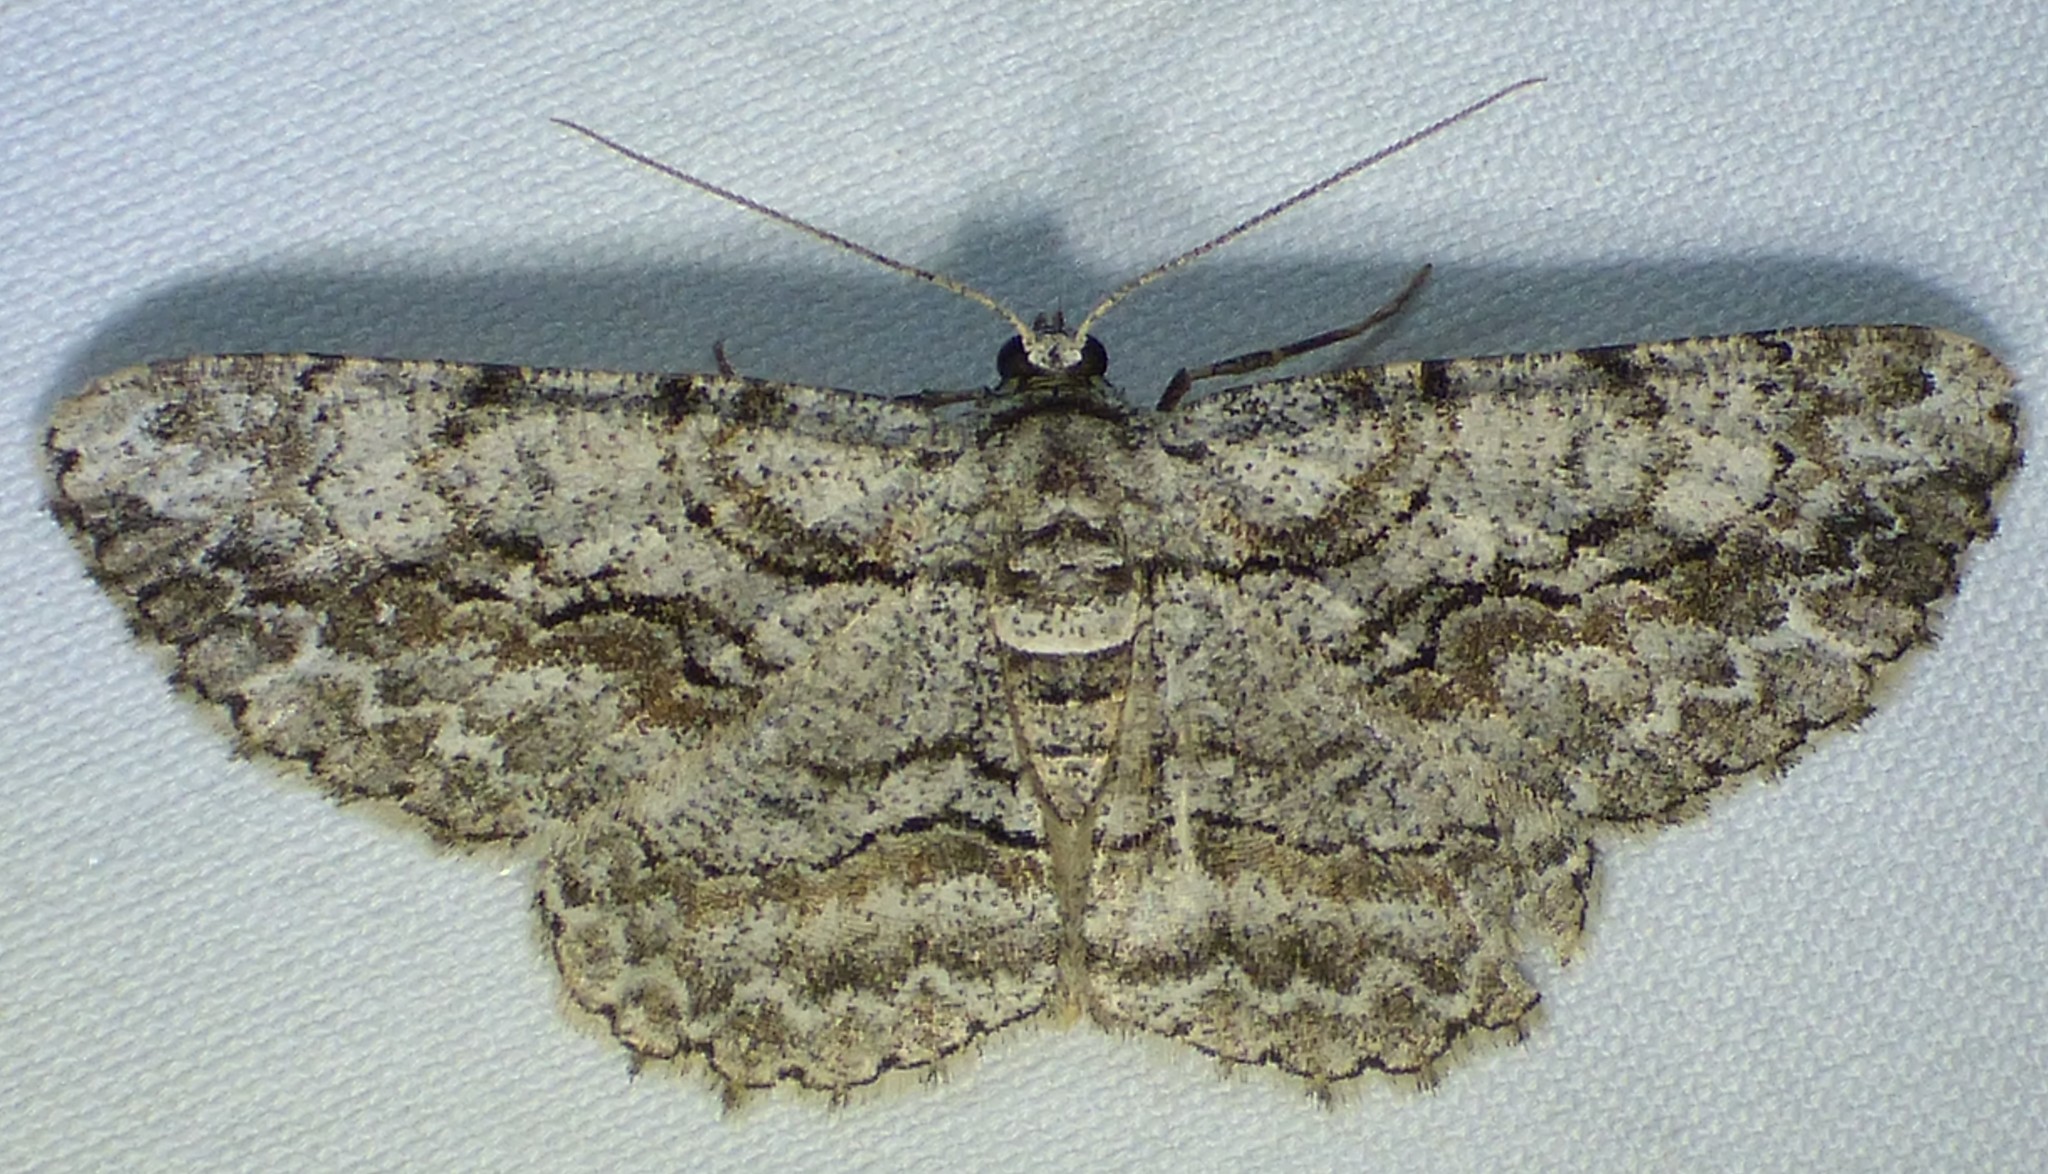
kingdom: Animalia
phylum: Arthropoda
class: Insecta
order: Lepidoptera
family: Geometridae
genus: Anavitrinella
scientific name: Anavitrinella pampinaria
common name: Common gray
